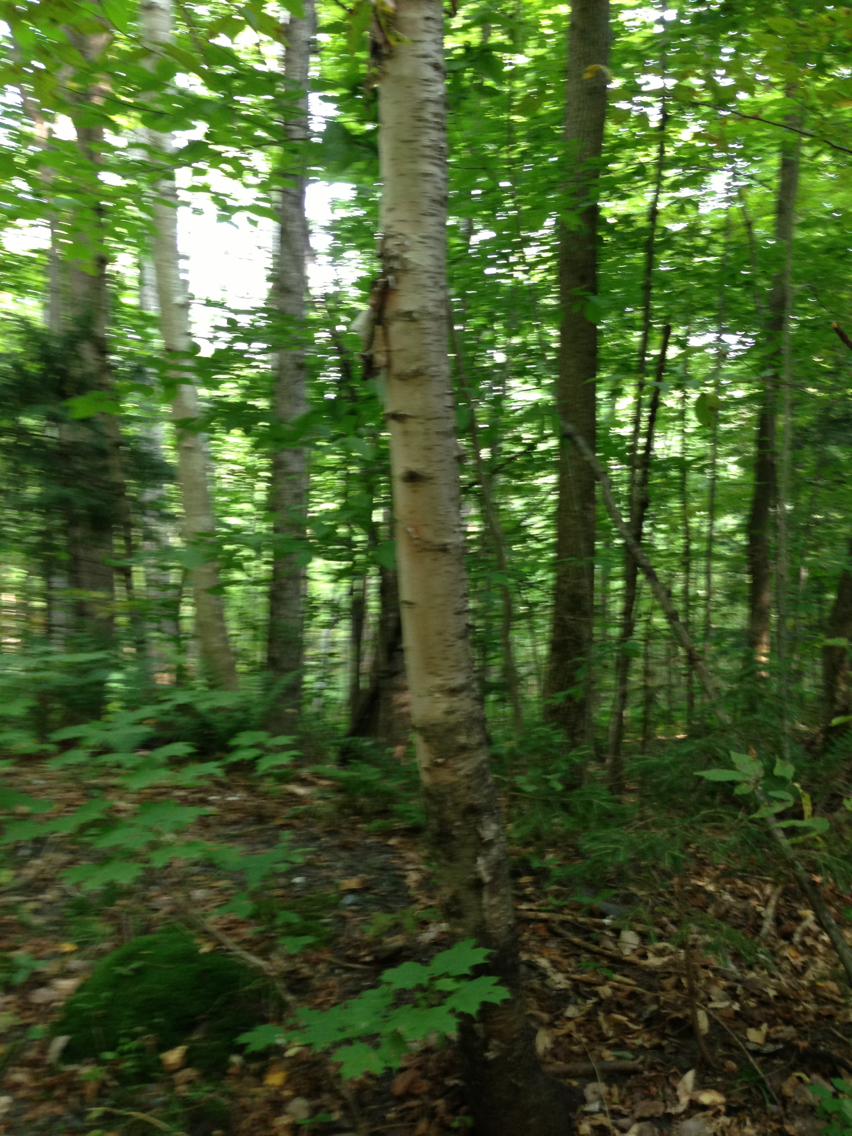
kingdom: Plantae
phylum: Tracheophyta
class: Magnoliopsida
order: Fagales
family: Betulaceae
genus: Betula
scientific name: Betula papyrifera
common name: Paper birch
